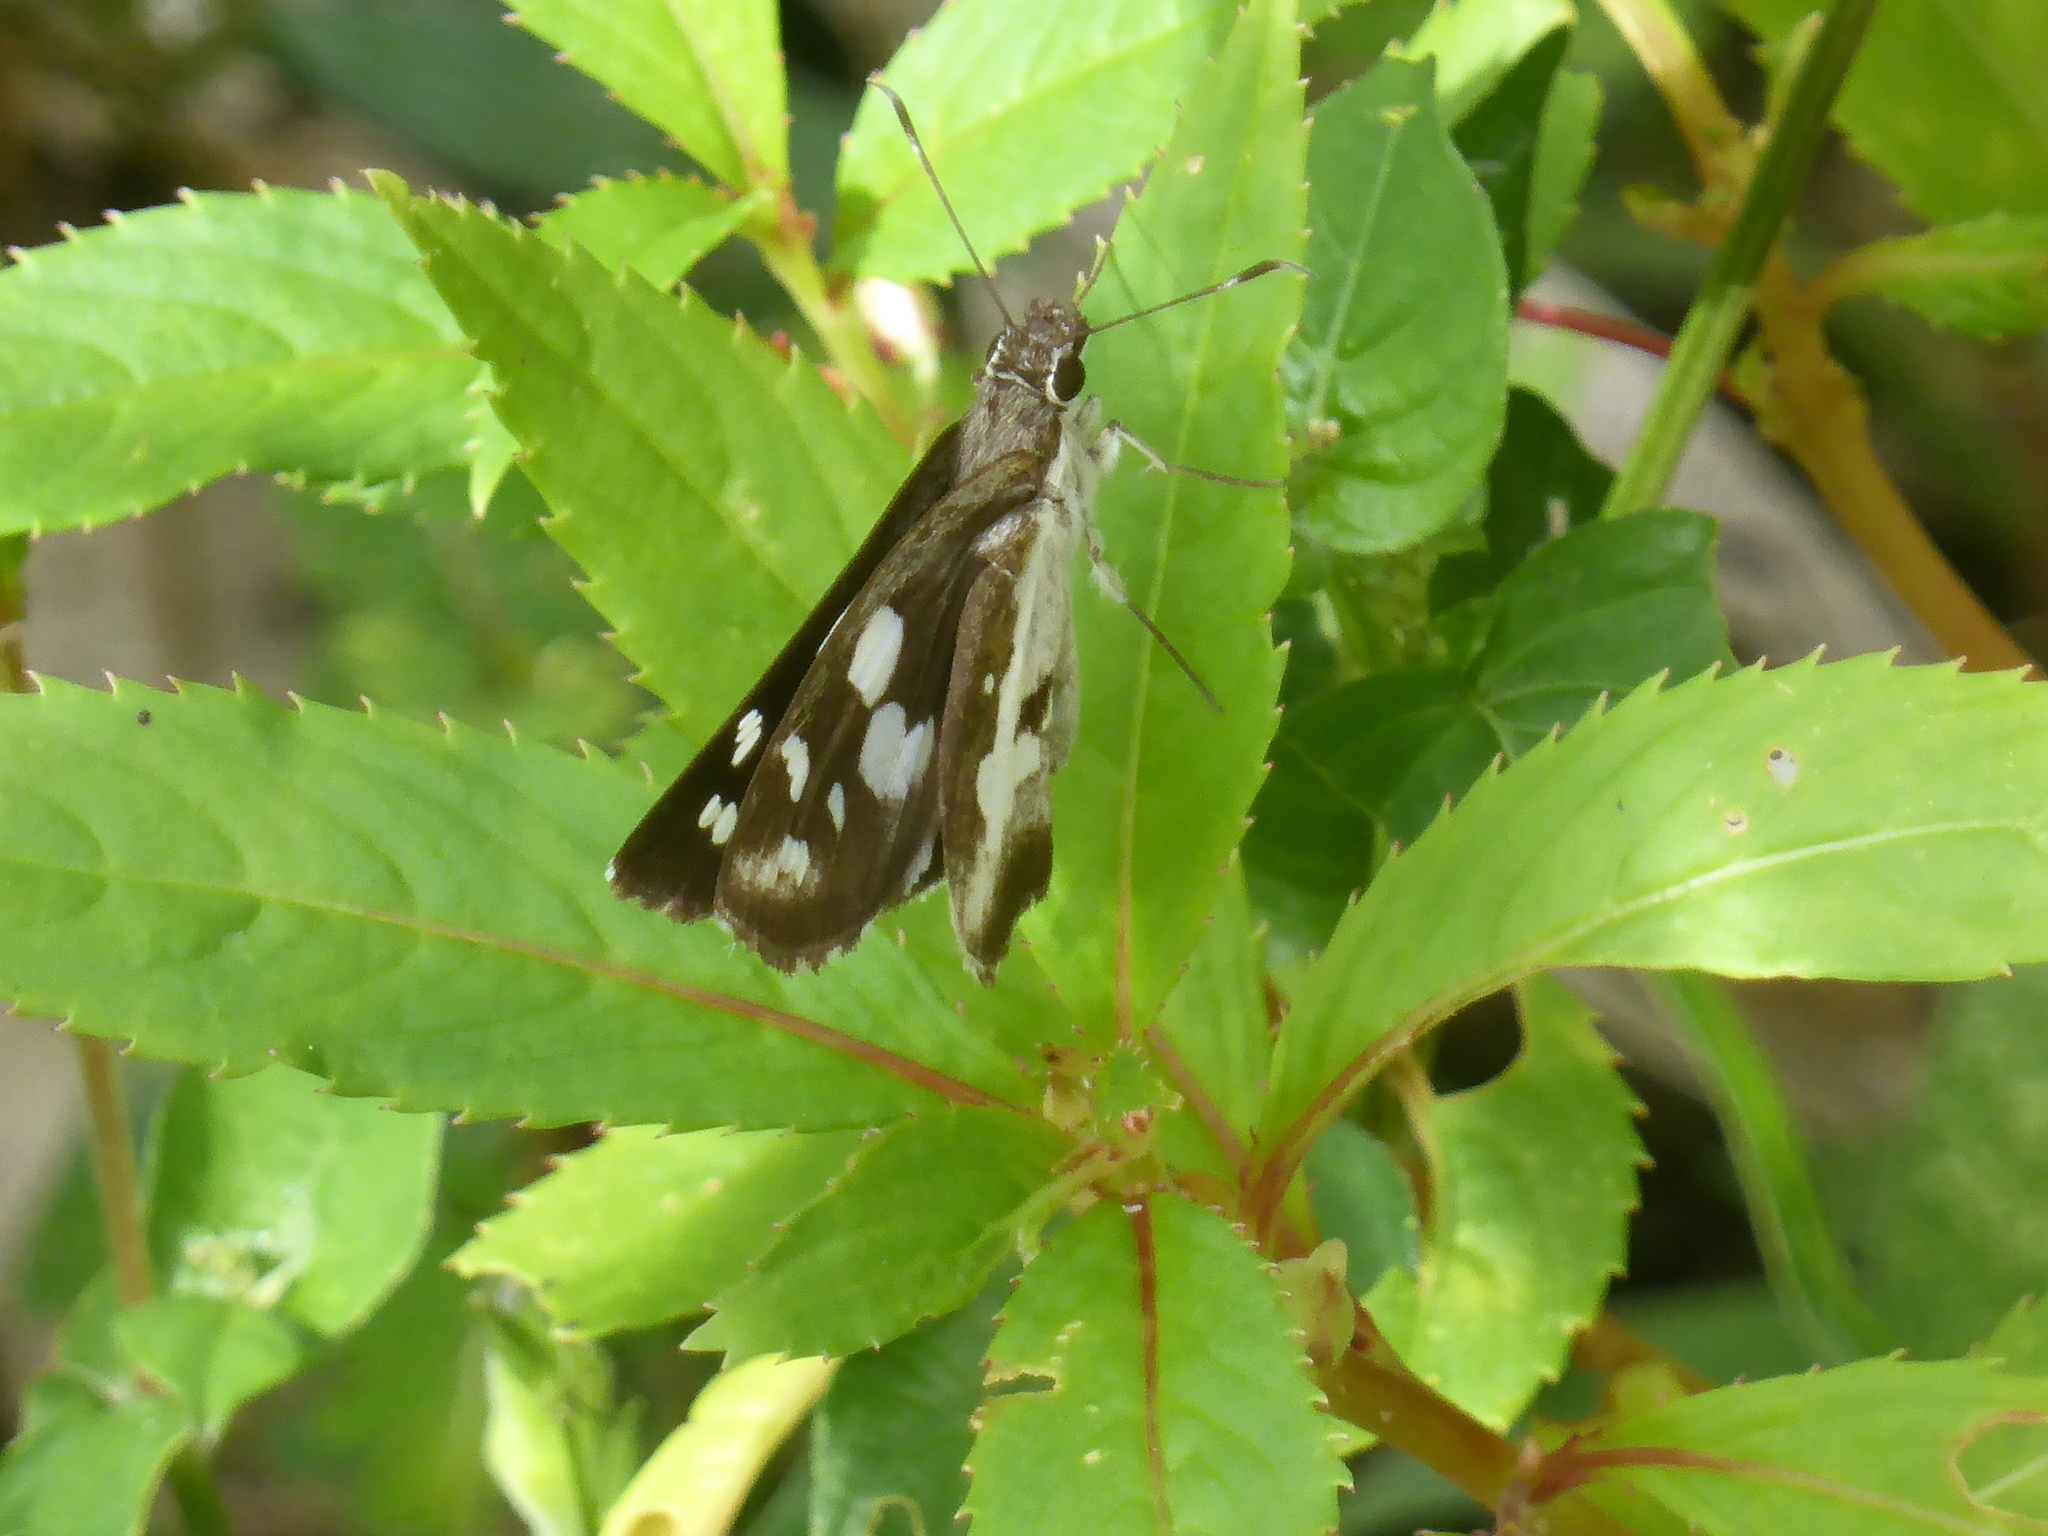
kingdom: Animalia
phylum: Arthropoda
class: Insecta
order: Lepidoptera
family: Hesperiidae
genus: Udaspes
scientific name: Udaspes folus
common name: Grass demon
